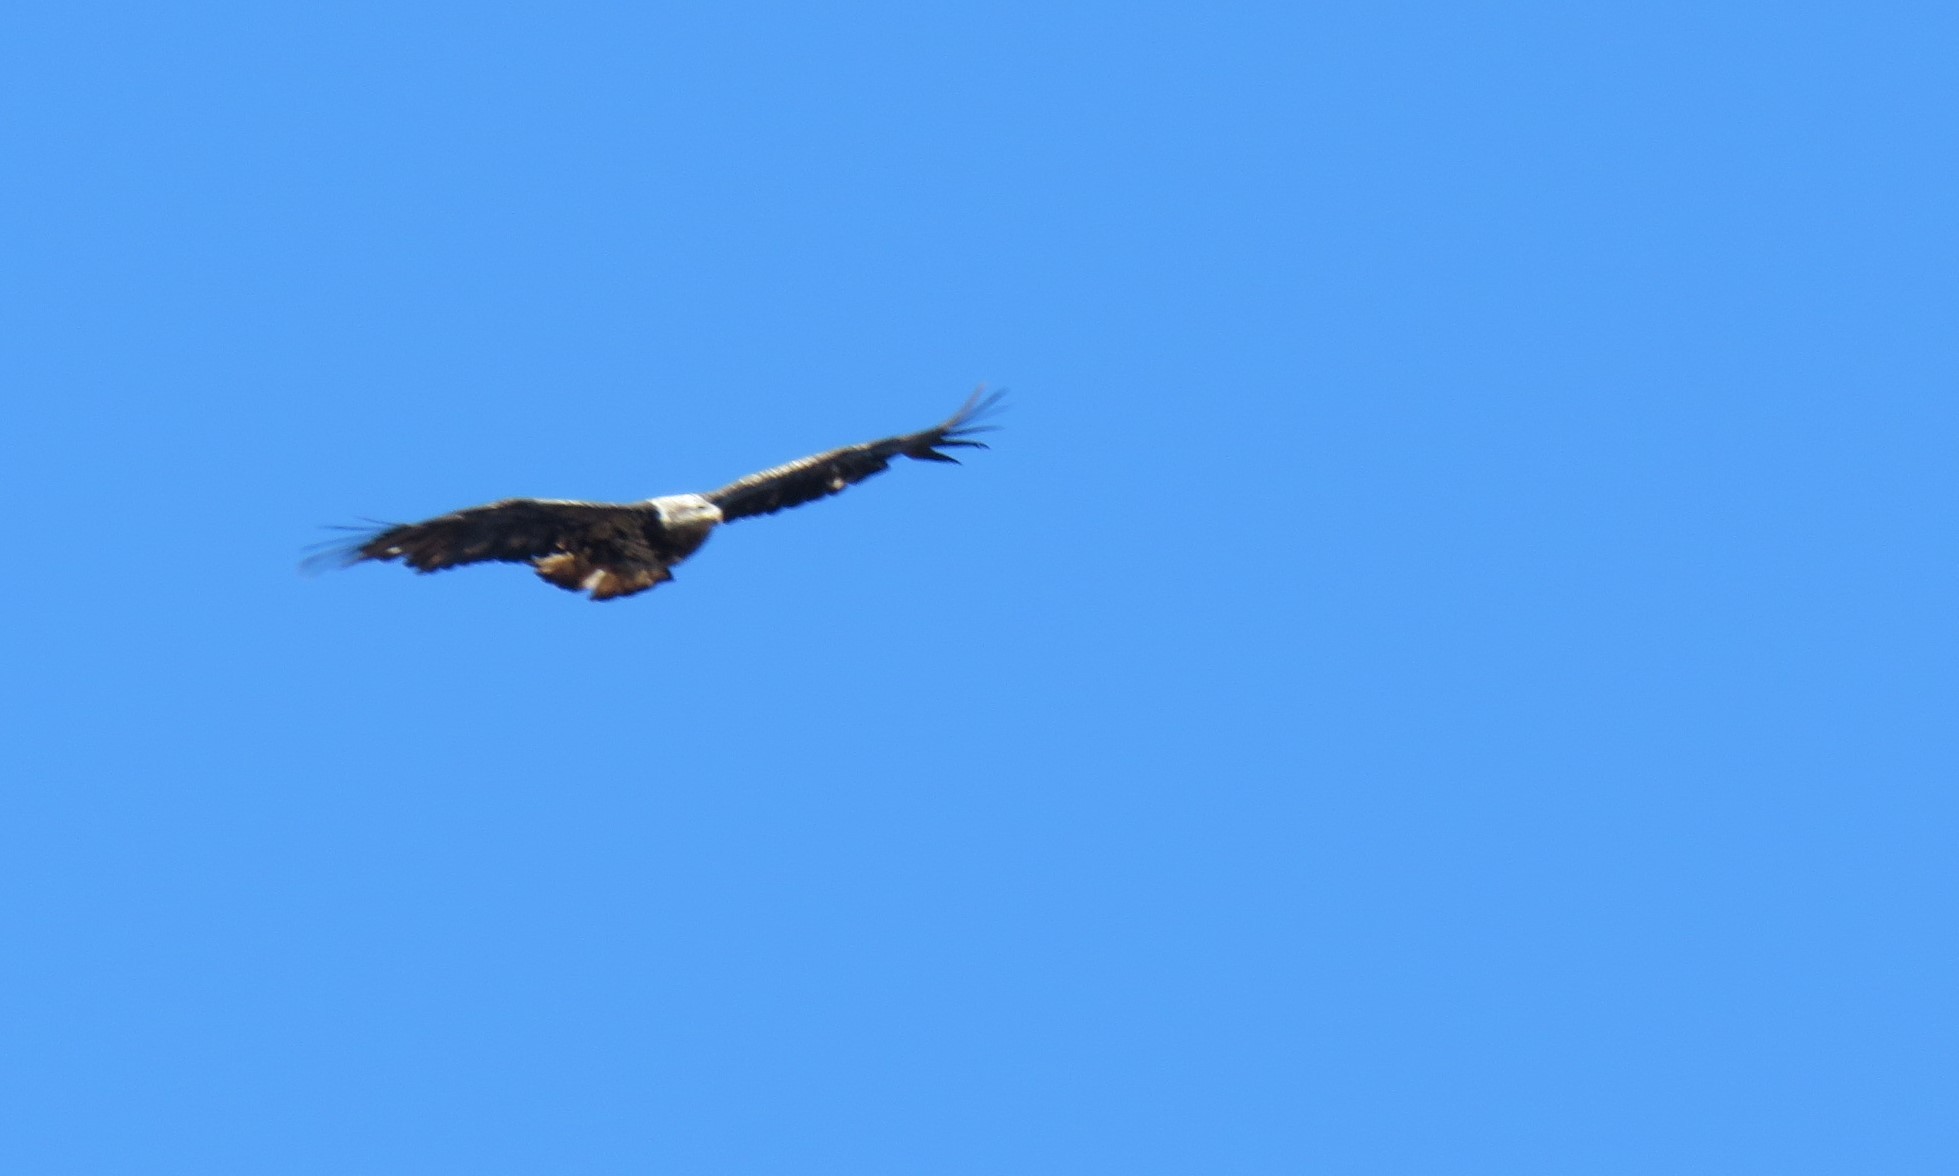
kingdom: Animalia
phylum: Chordata
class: Aves
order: Accipitriformes
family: Accipitridae
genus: Haliaeetus
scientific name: Haliaeetus leucocephalus
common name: Bald eagle
